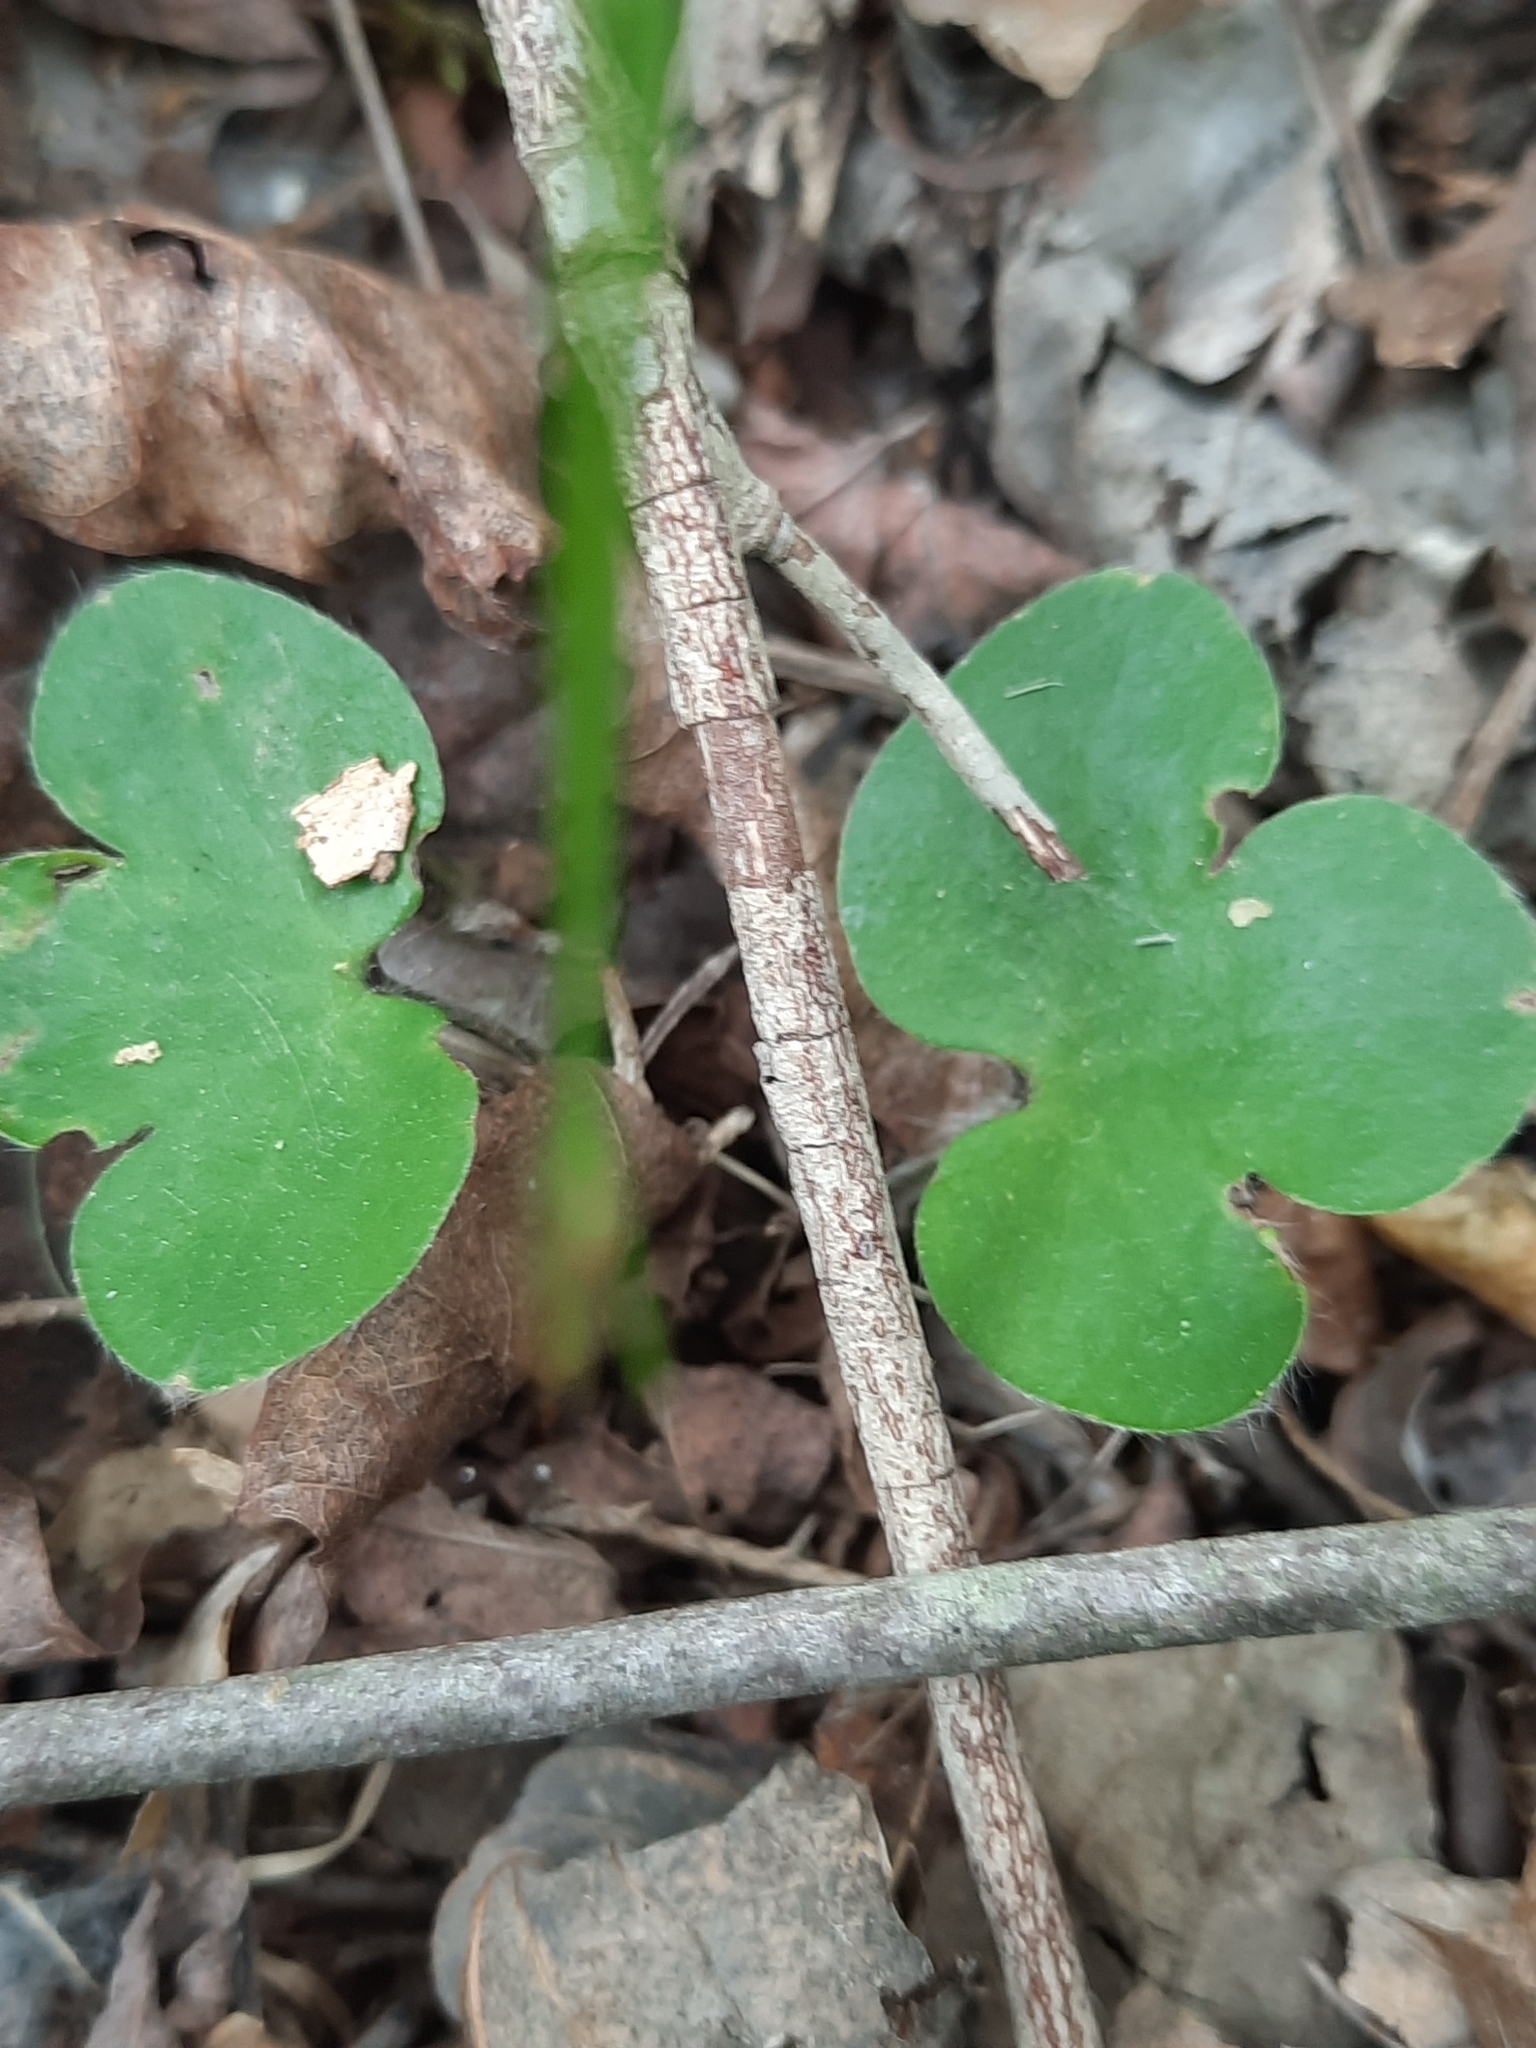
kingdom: Plantae
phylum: Tracheophyta
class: Magnoliopsida
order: Ranunculales
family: Ranunculaceae
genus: Hepatica
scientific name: Hepatica americana
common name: American hepatica
